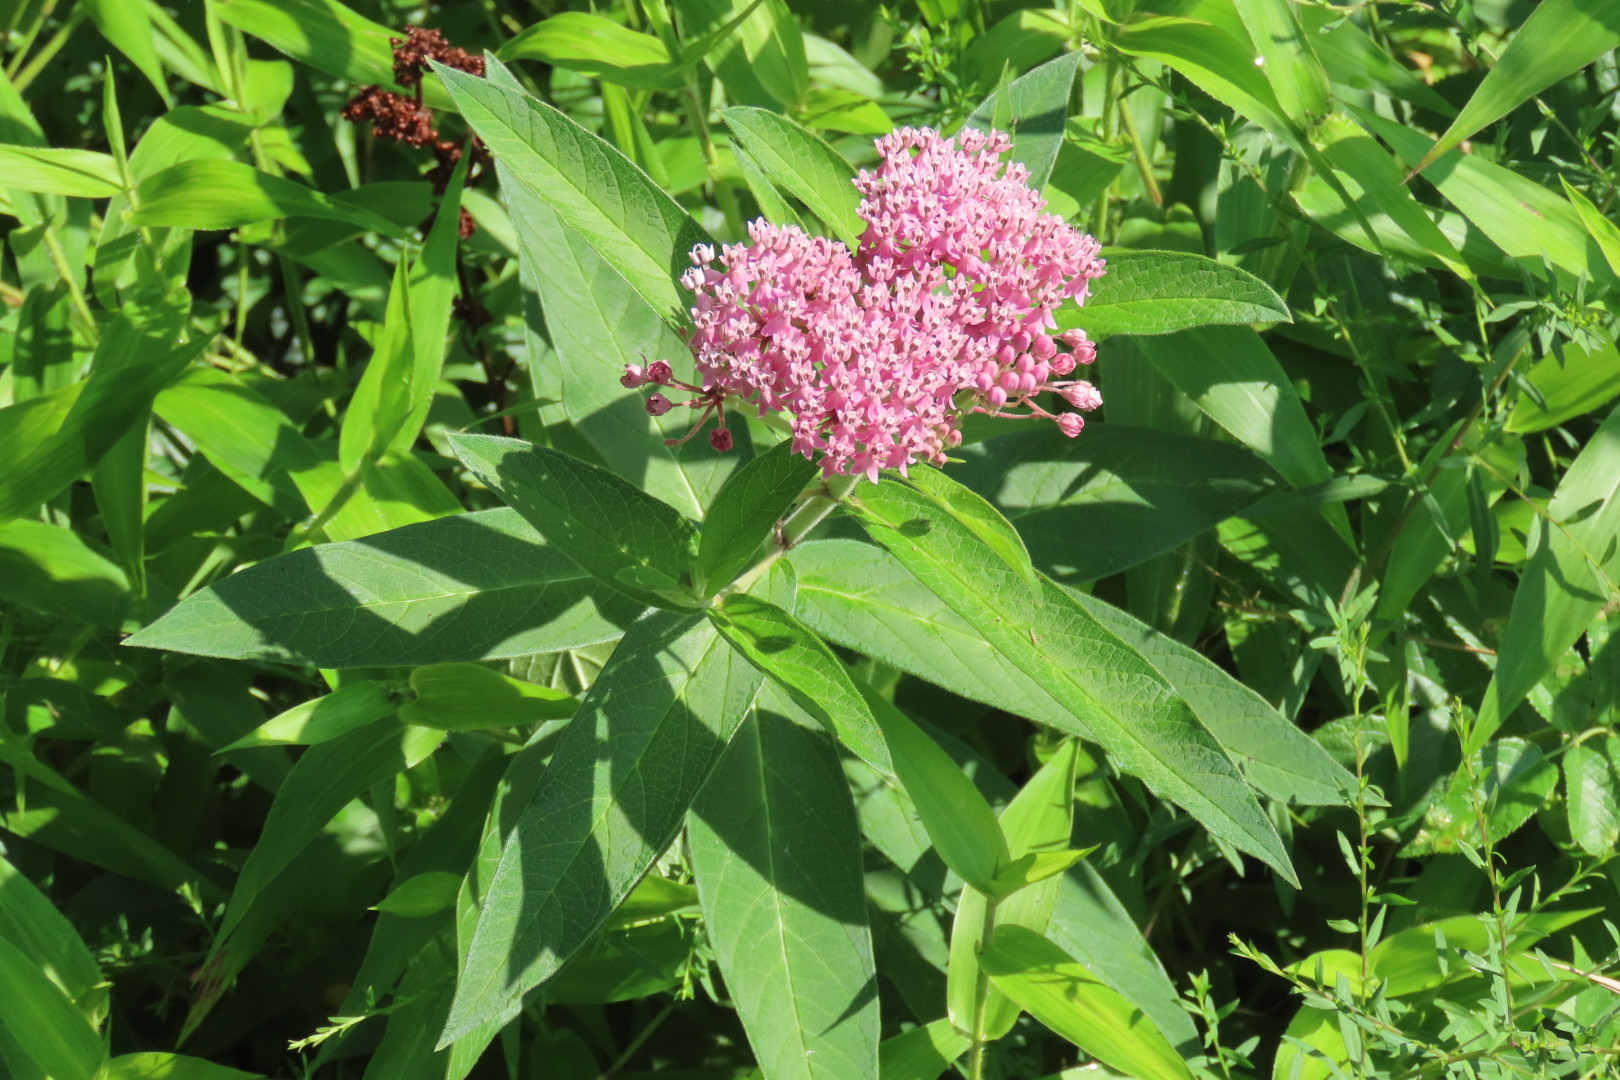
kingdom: Plantae
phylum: Tracheophyta
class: Magnoliopsida
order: Gentianales
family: Apocynaceae
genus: Asclepias
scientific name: Asclepias incarnata
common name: Swamp milkweed
